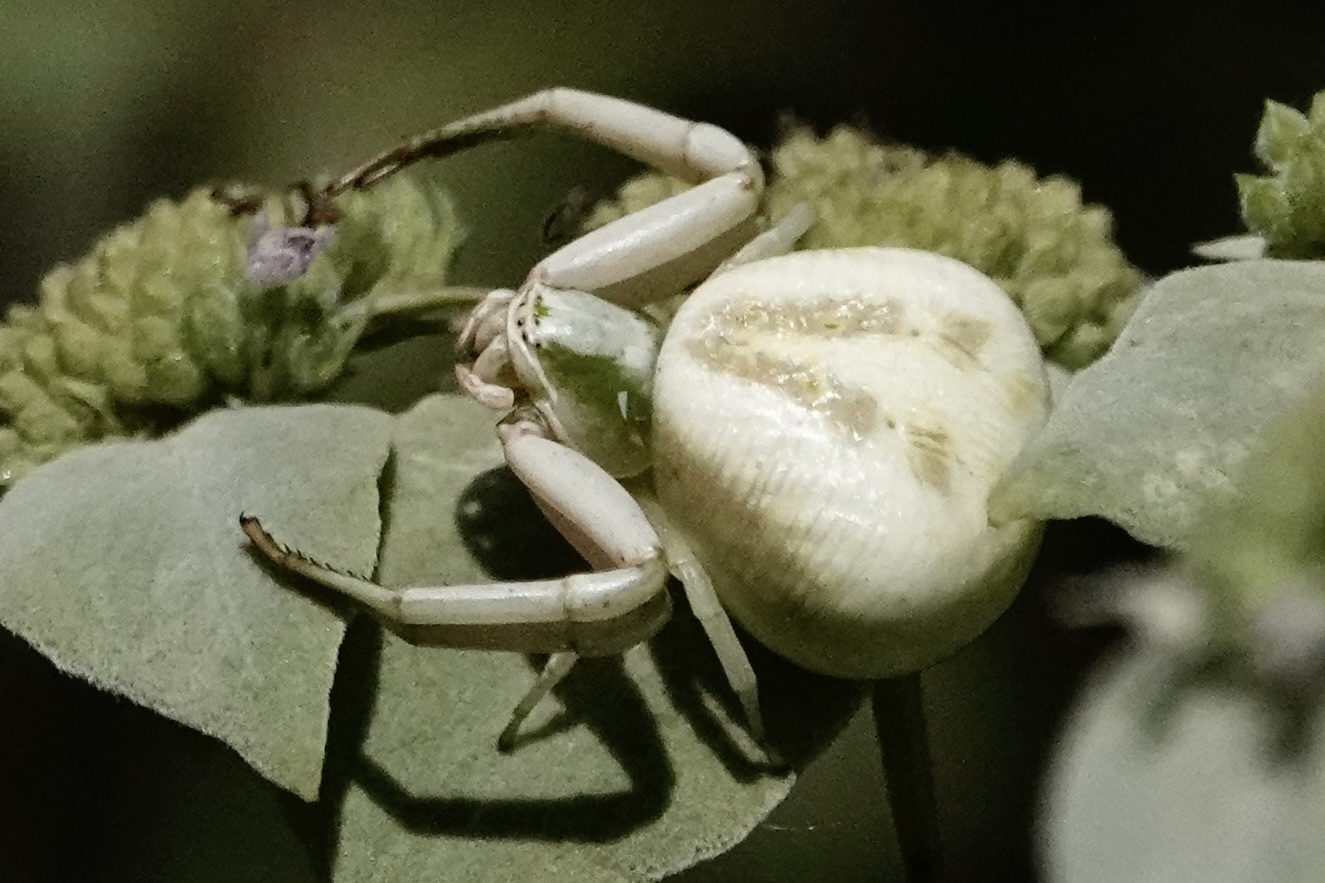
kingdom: Animalia
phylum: Arthropoda
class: Arachnida
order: Araneae
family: Thomisidae
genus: Misumenoides
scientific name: Misumenoides formosipes
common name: White-banded crab spider
